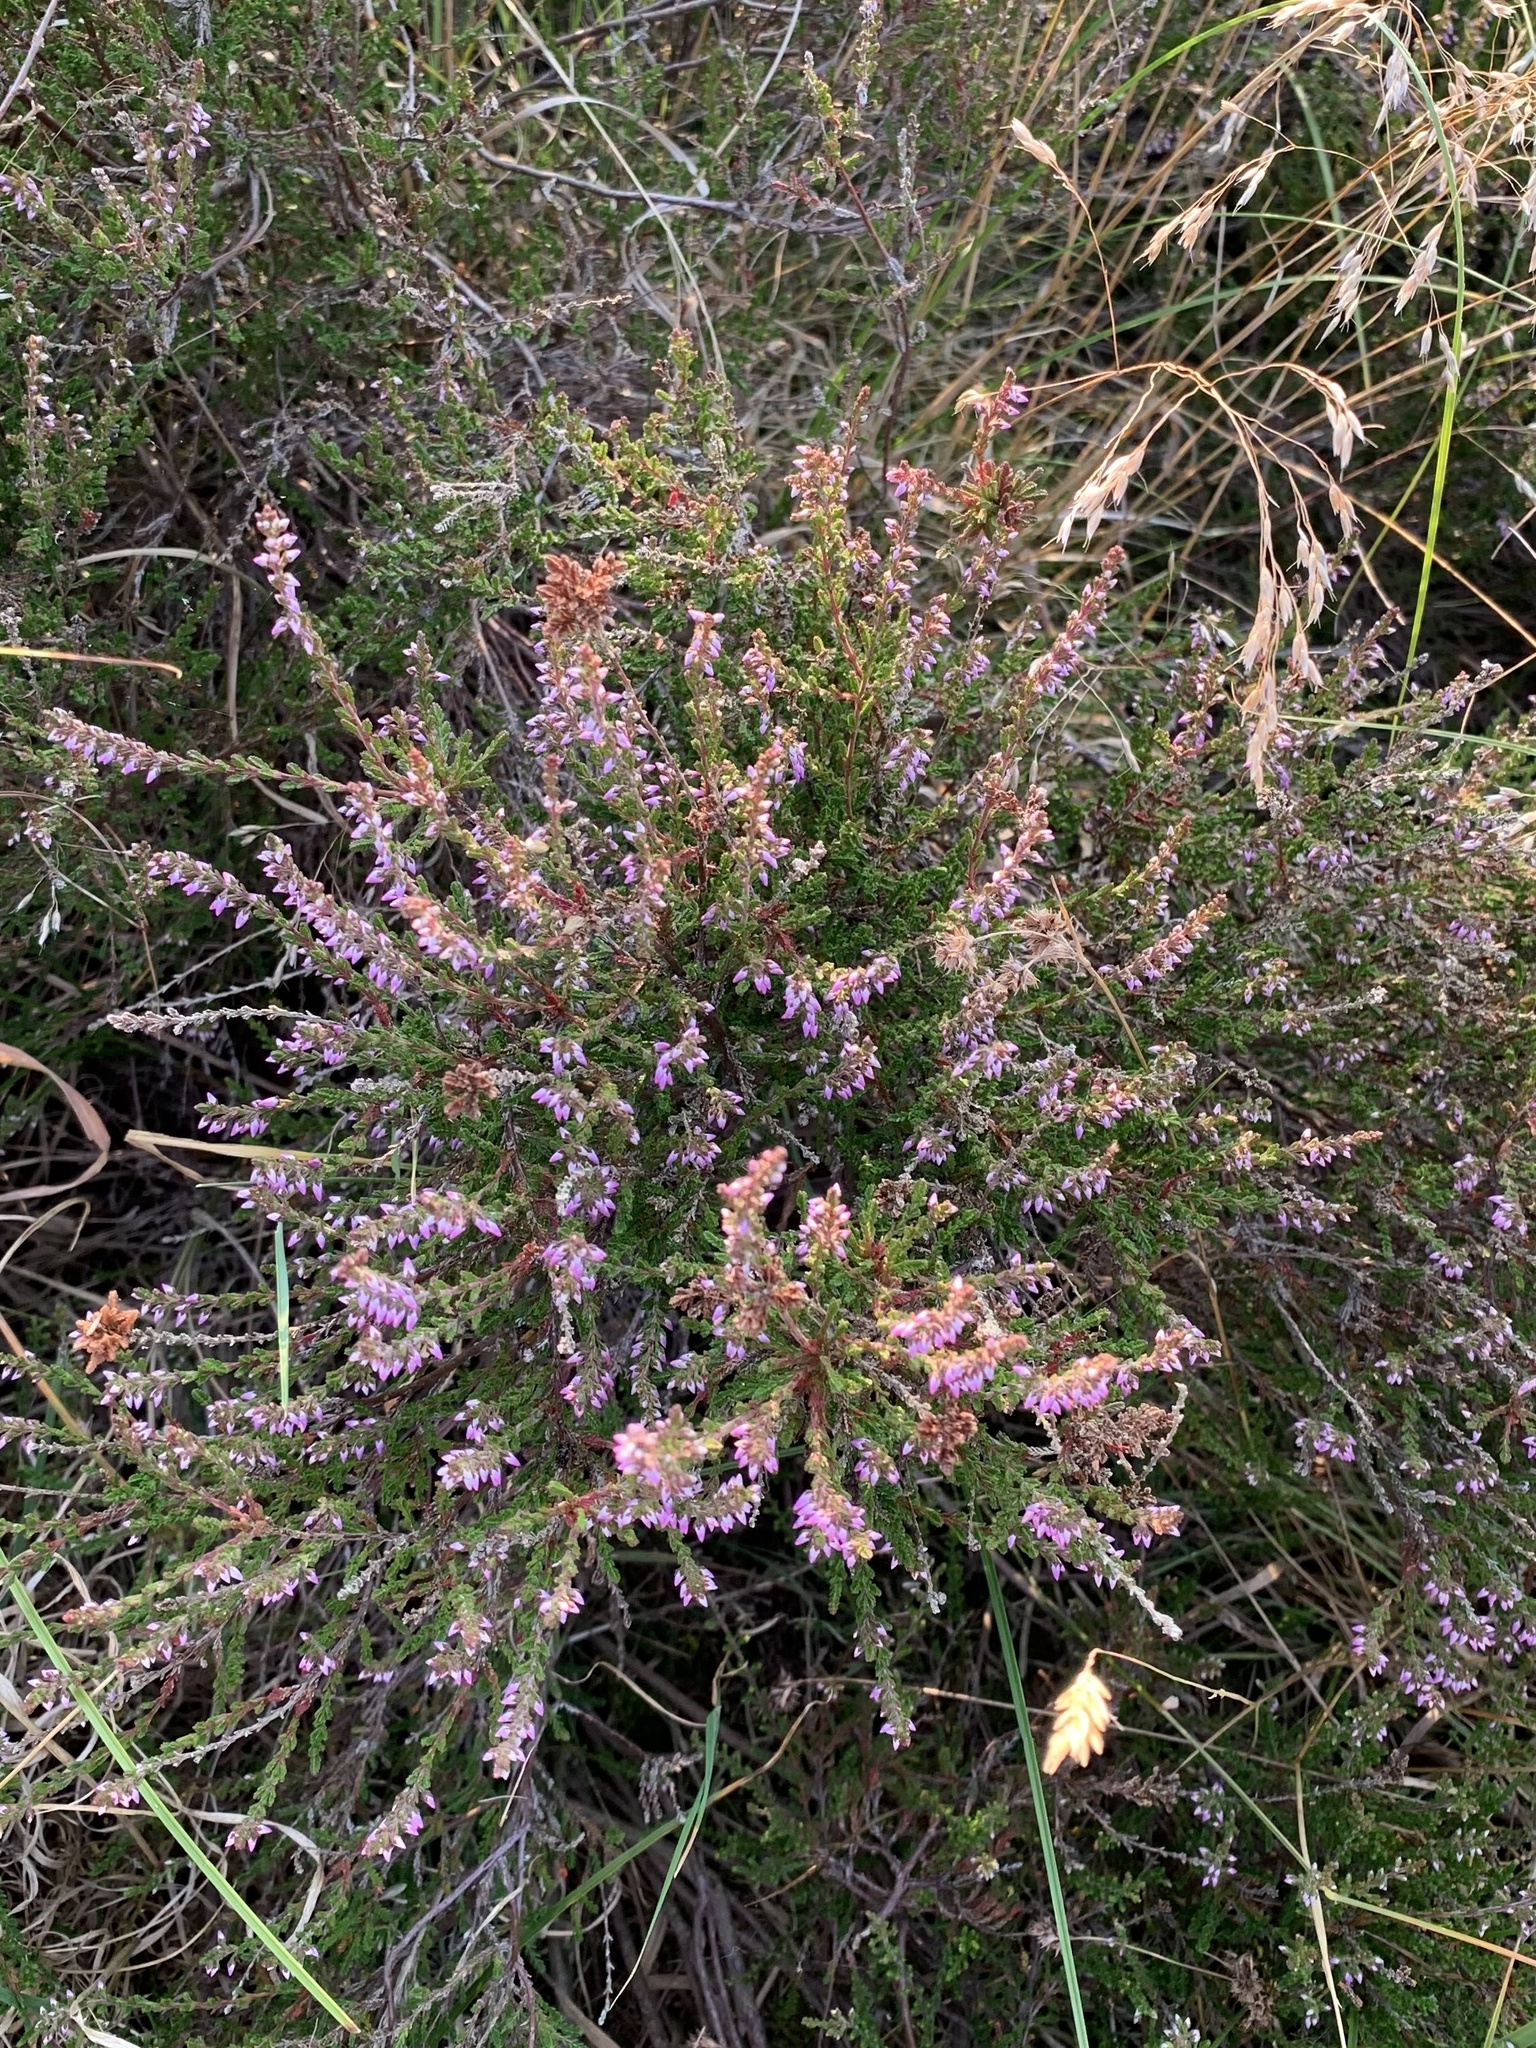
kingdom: Plantae
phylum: Tracheophyta
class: Magnoliopsida
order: Ericales
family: Ericaceae
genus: Calluna
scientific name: Calluna vulgaris
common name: Heather
